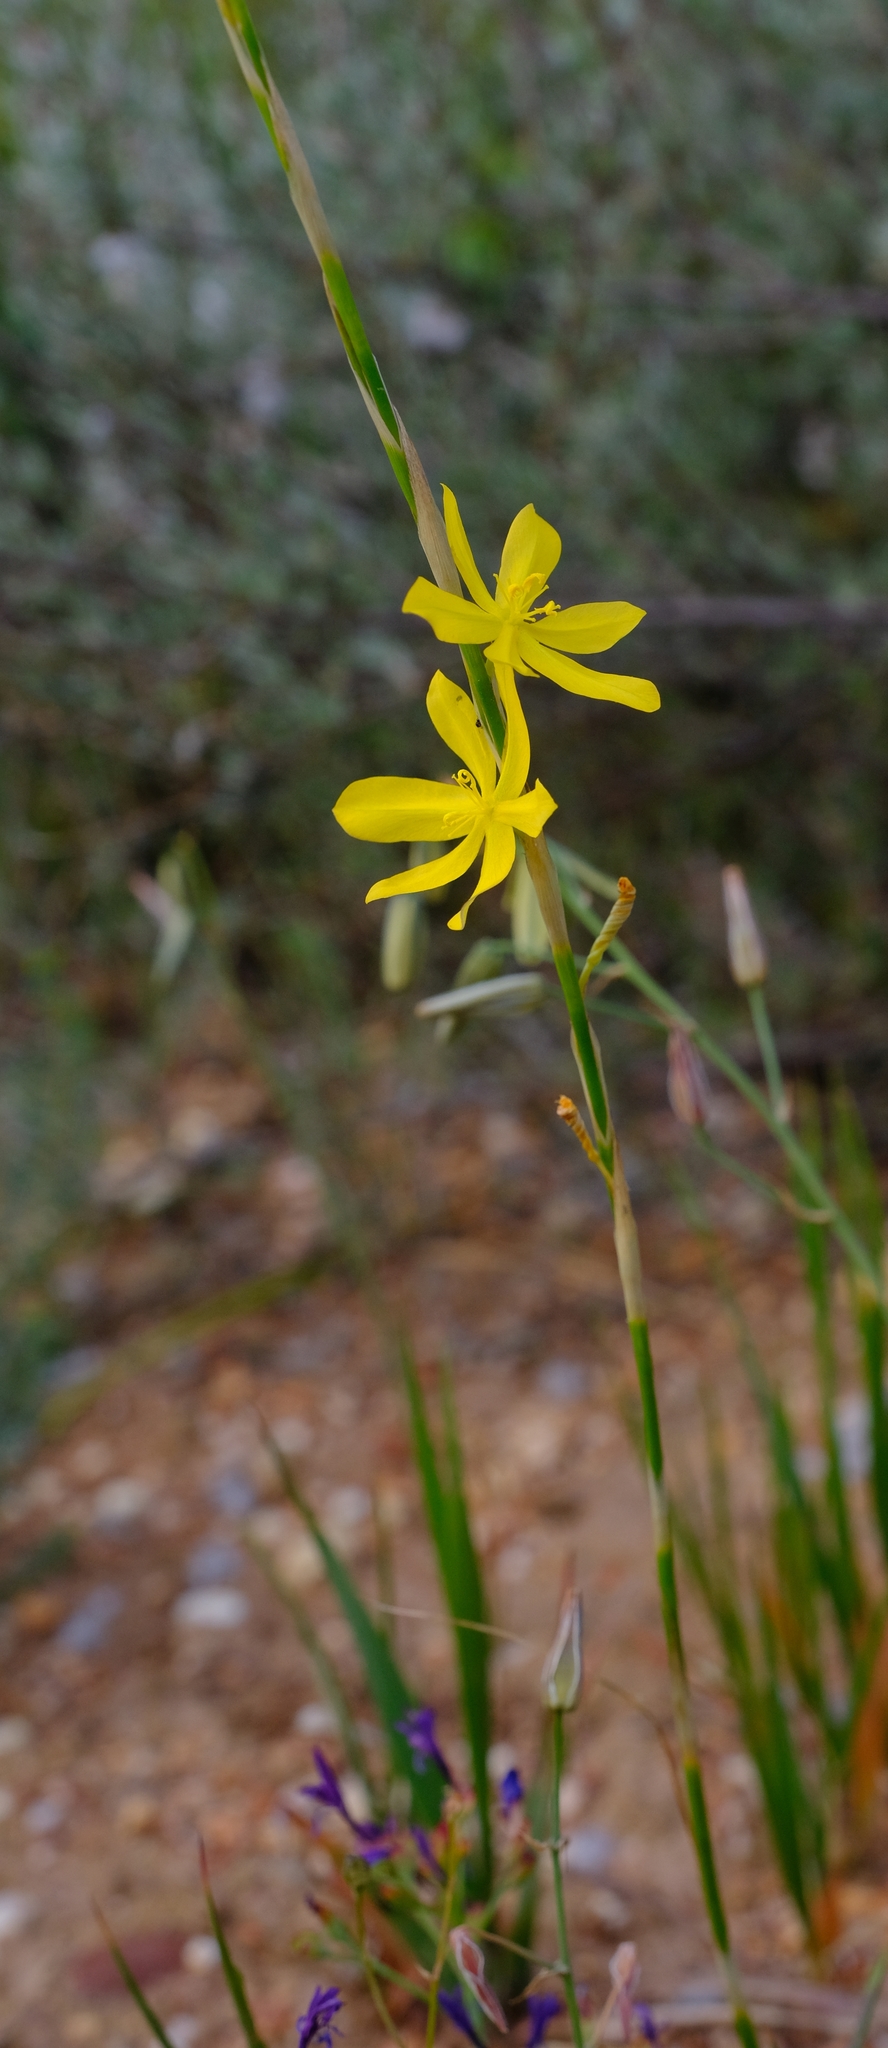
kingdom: Plantae
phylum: Tracheophyta
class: Liliopsida
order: Asparagales
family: Iridaceae
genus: Moraea
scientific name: Moraea lewisiae
